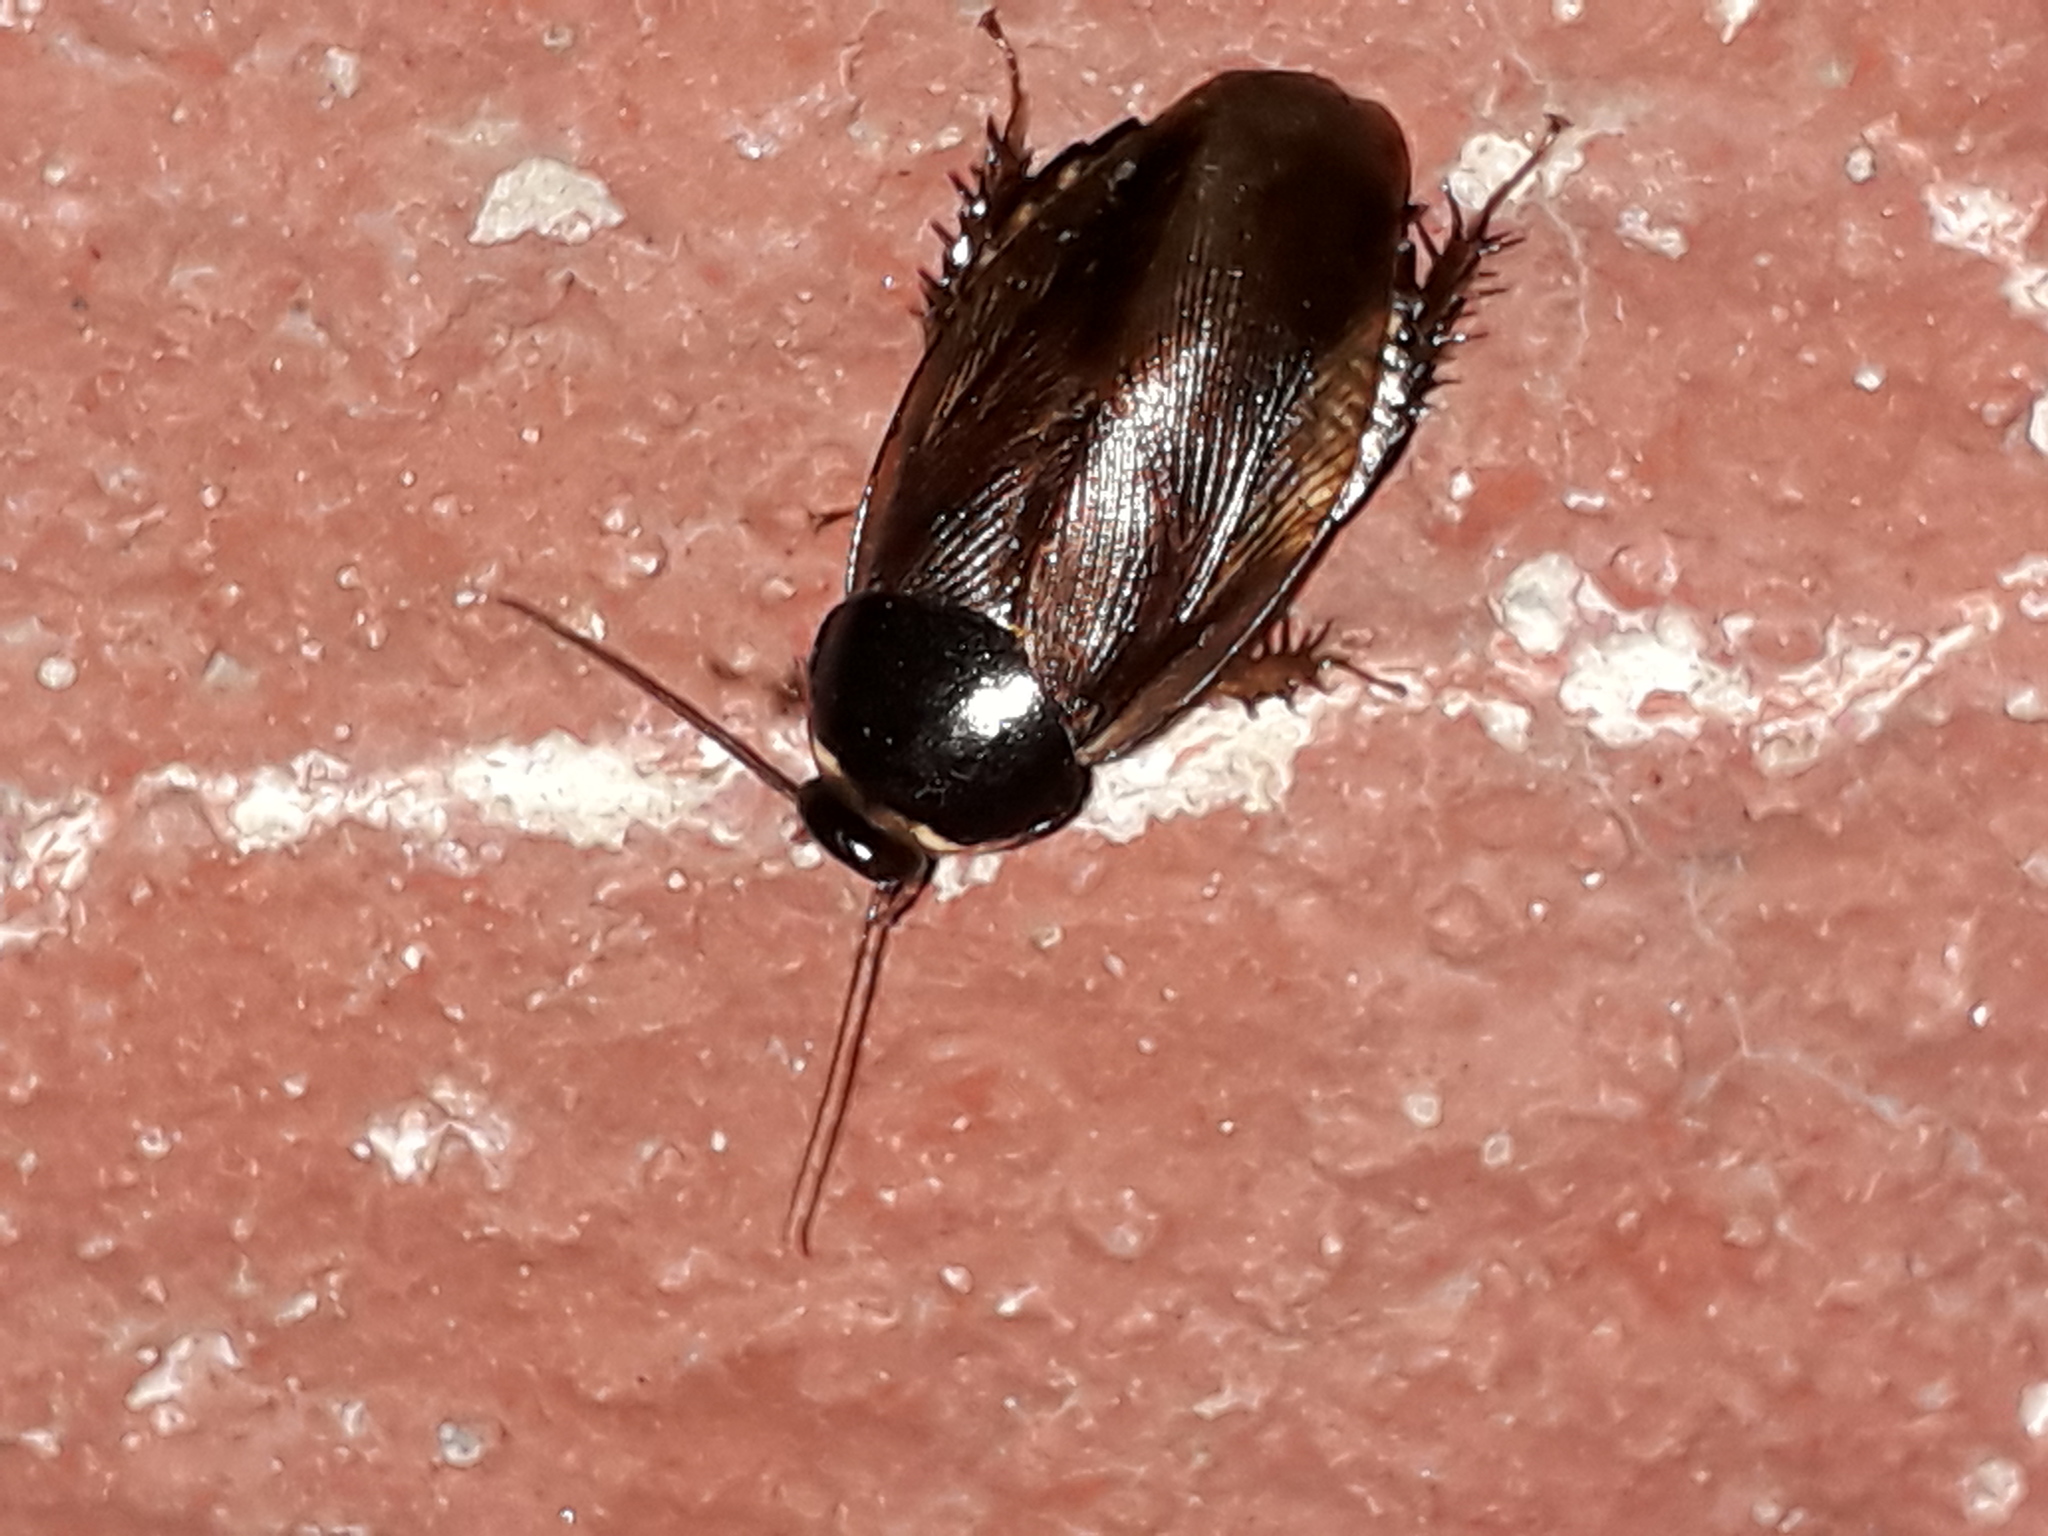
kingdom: Animalia
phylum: Arthropoda
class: Insecta
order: Blattodea
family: Blaberidae
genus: Pycnoscelus
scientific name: Pycnoscelus surinamensis
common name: Surinam cockroach
